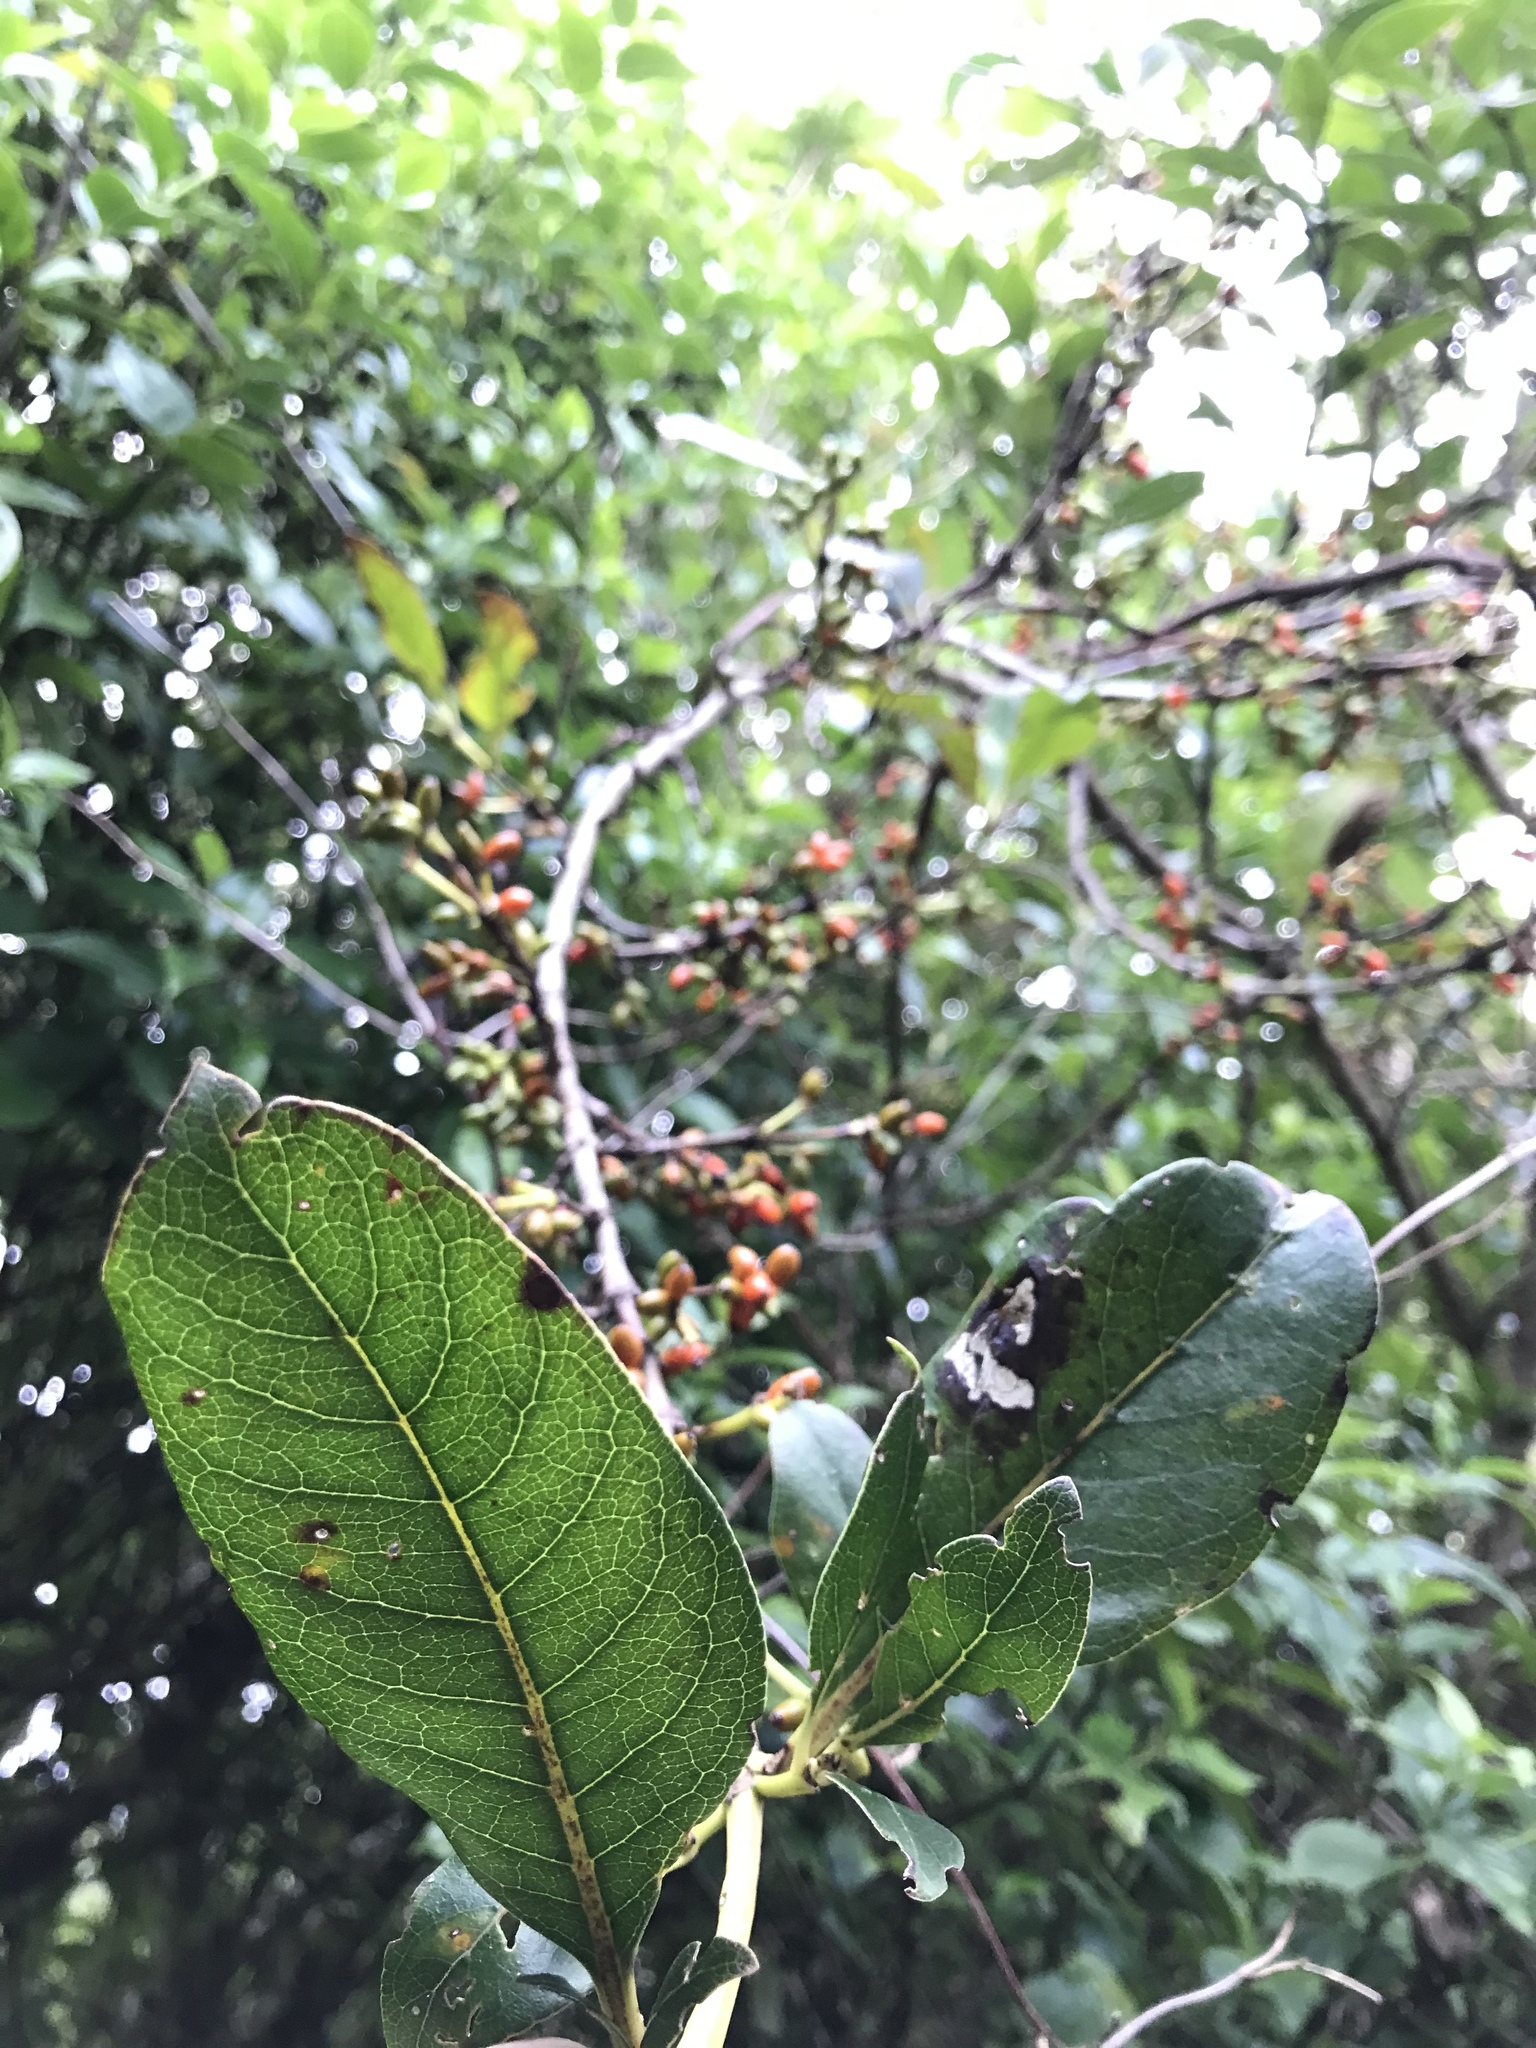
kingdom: Plantae
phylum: Tracheophyta
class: Magnoliopsida
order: Gentianales
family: Rubiaceae
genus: Coprosma
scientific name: Coprosma robusta
